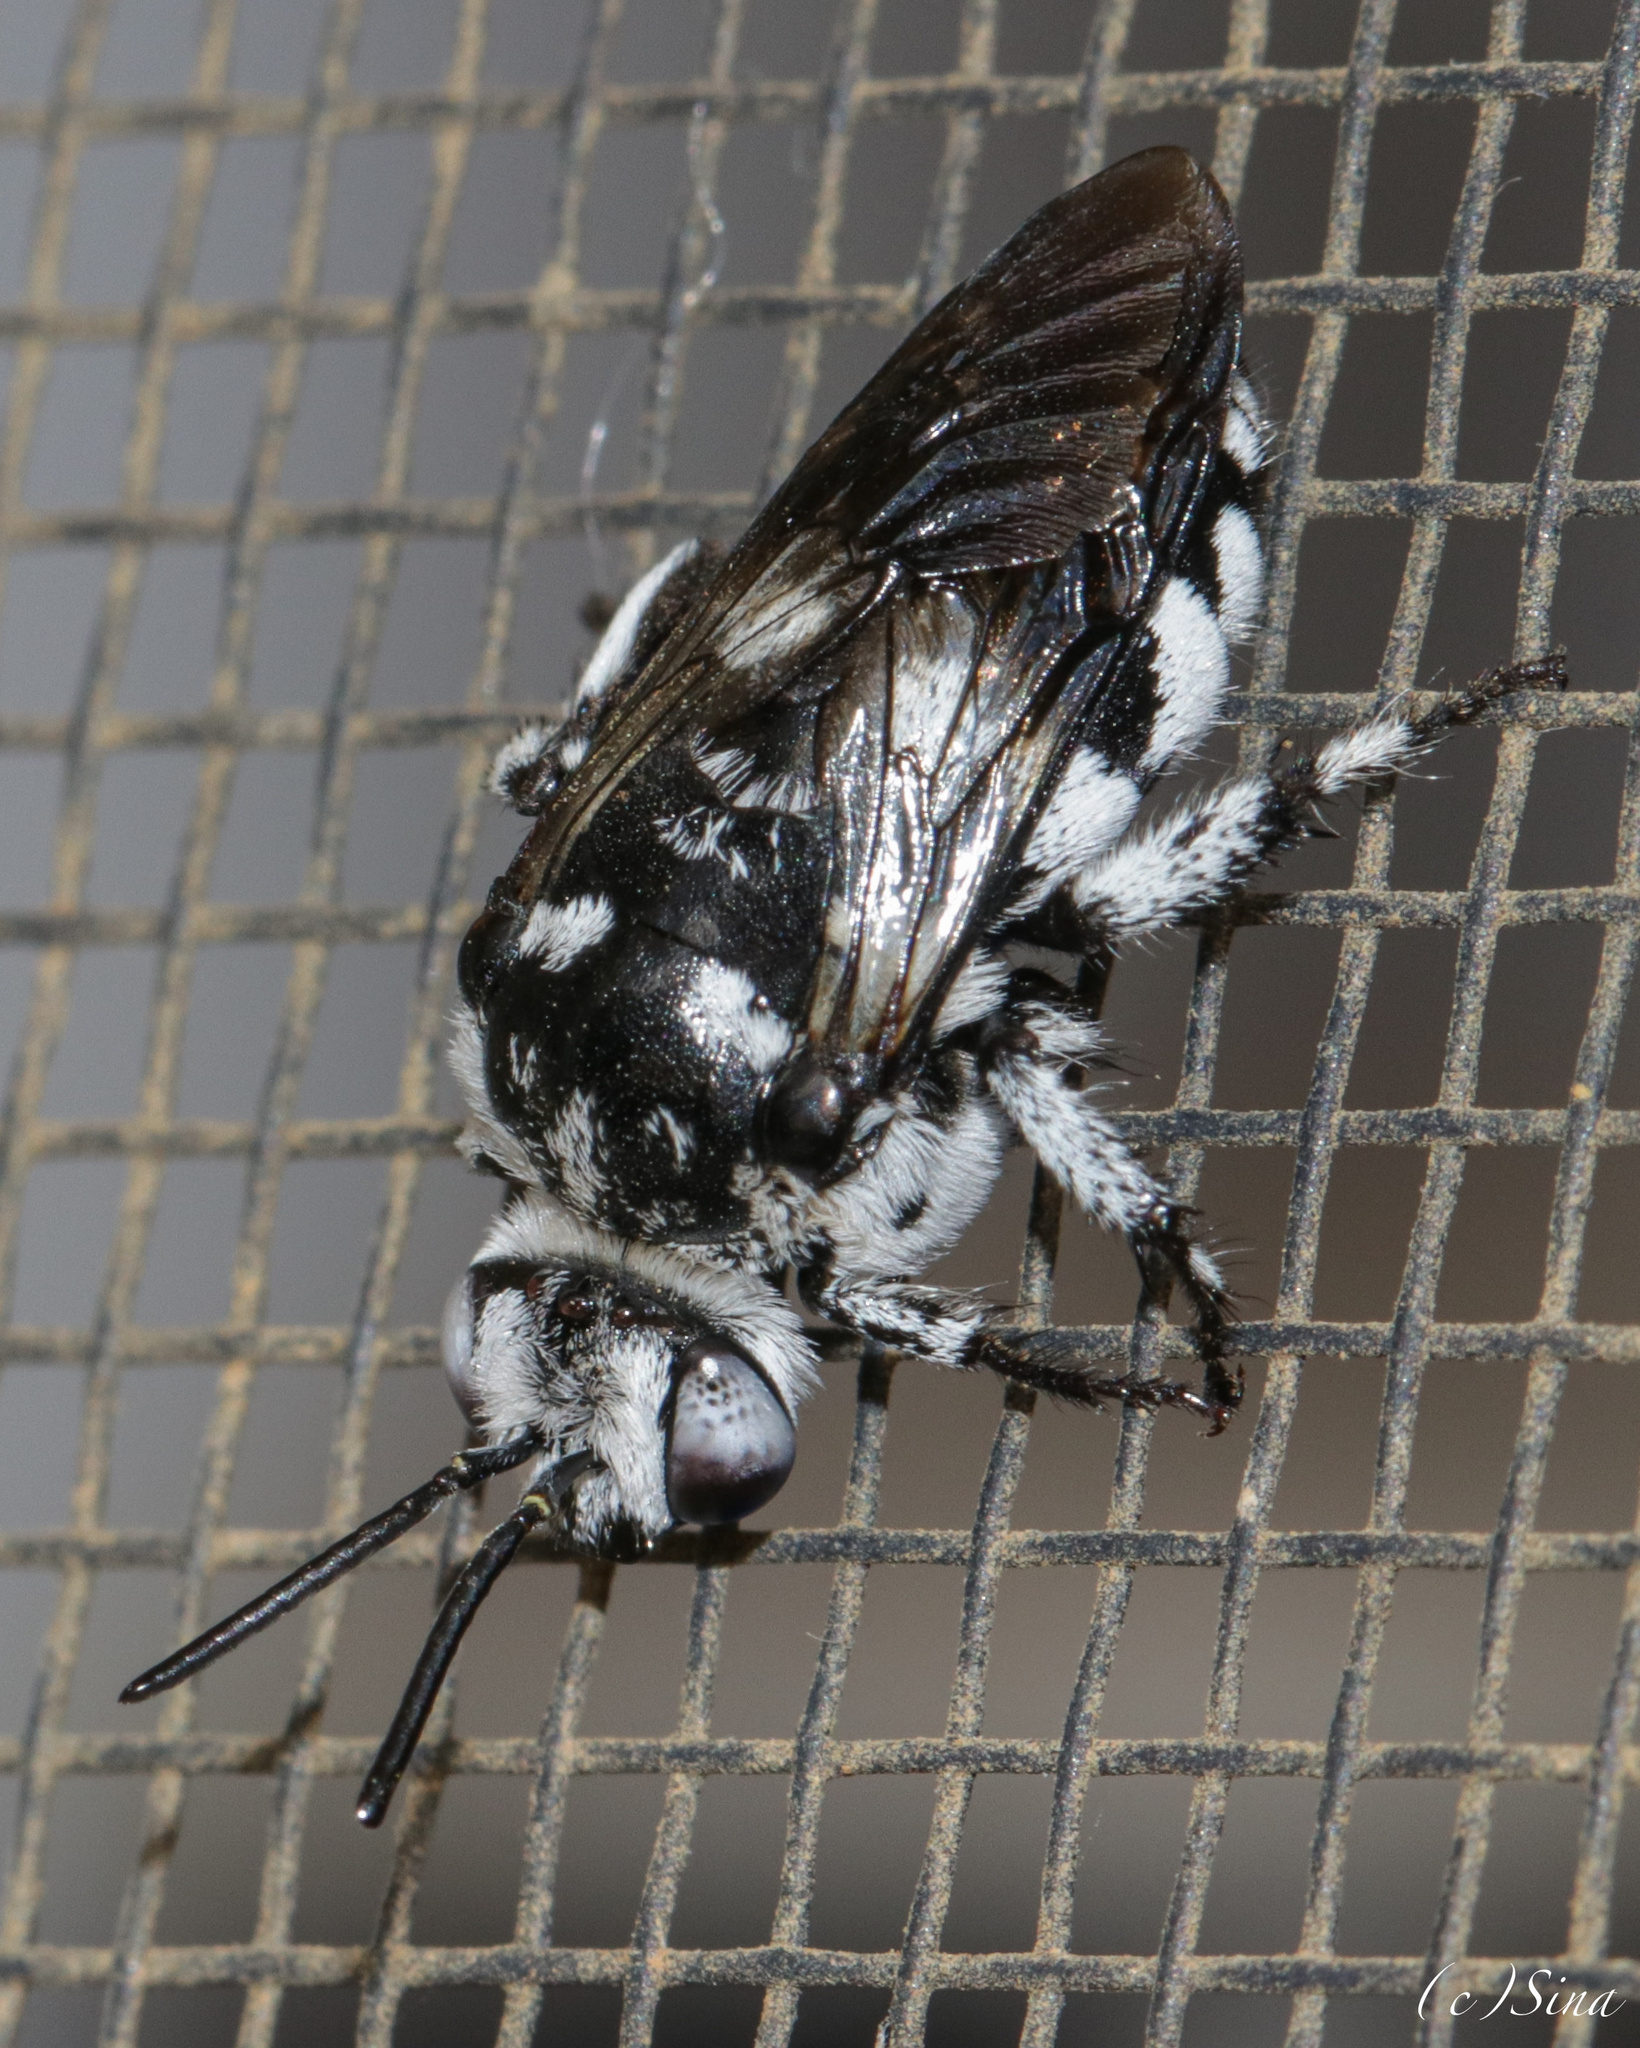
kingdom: Animalia
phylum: Arthropoda
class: Insecta
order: Hymenoptera
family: Apidae
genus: Thyreus
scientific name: Thyreus waroonensis
